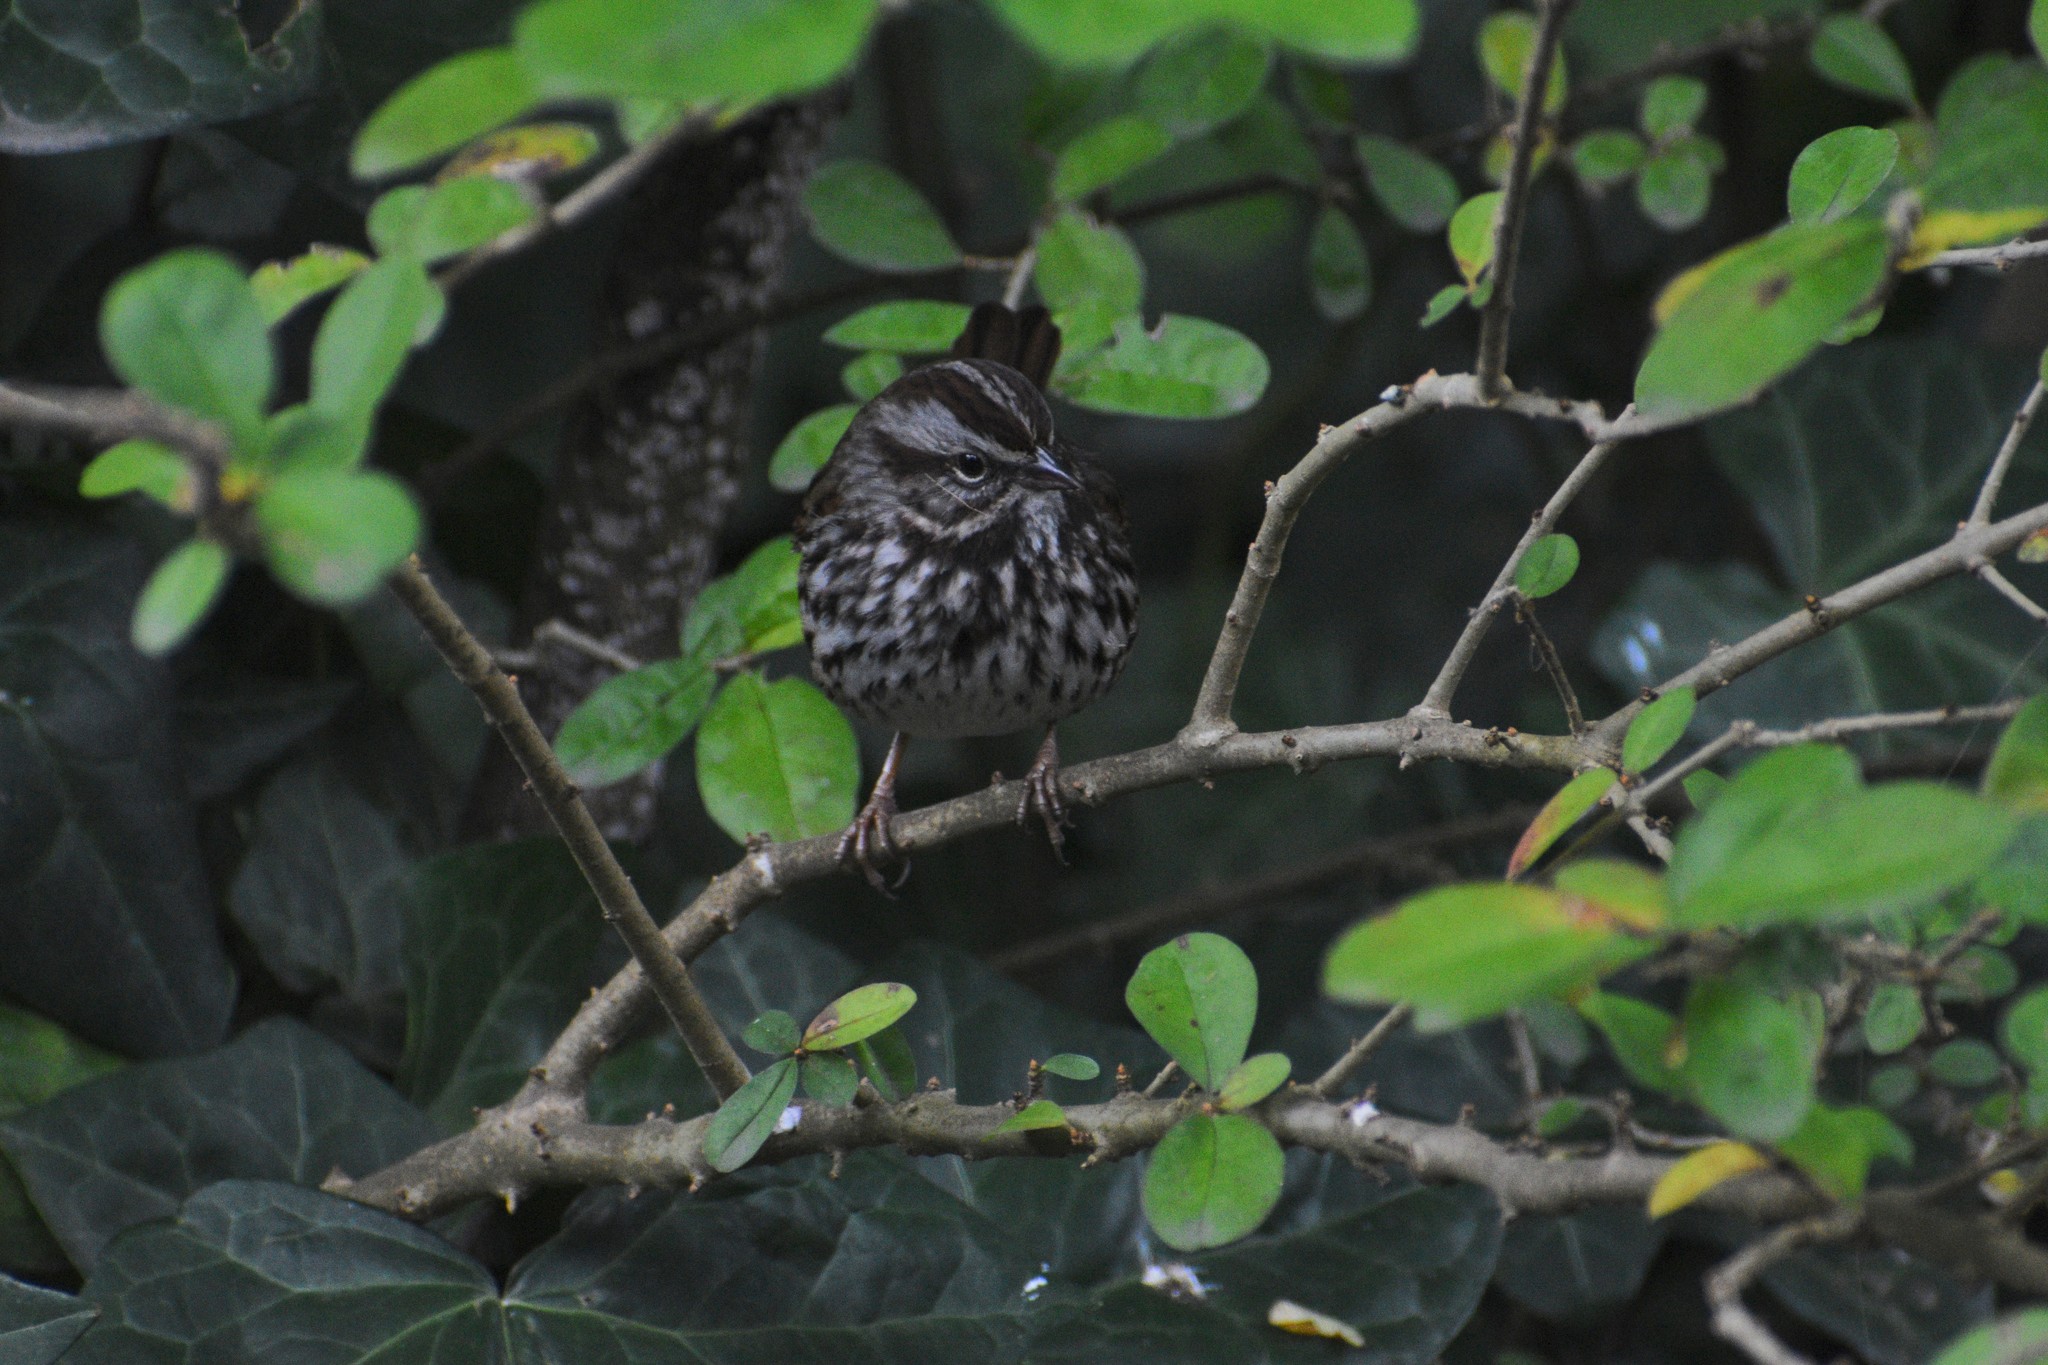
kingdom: Animalia
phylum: Chordata
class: Aves
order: Passeriformes
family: Passerellidae
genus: Melospiza
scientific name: Melospiza melodia
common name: Song sparrow
